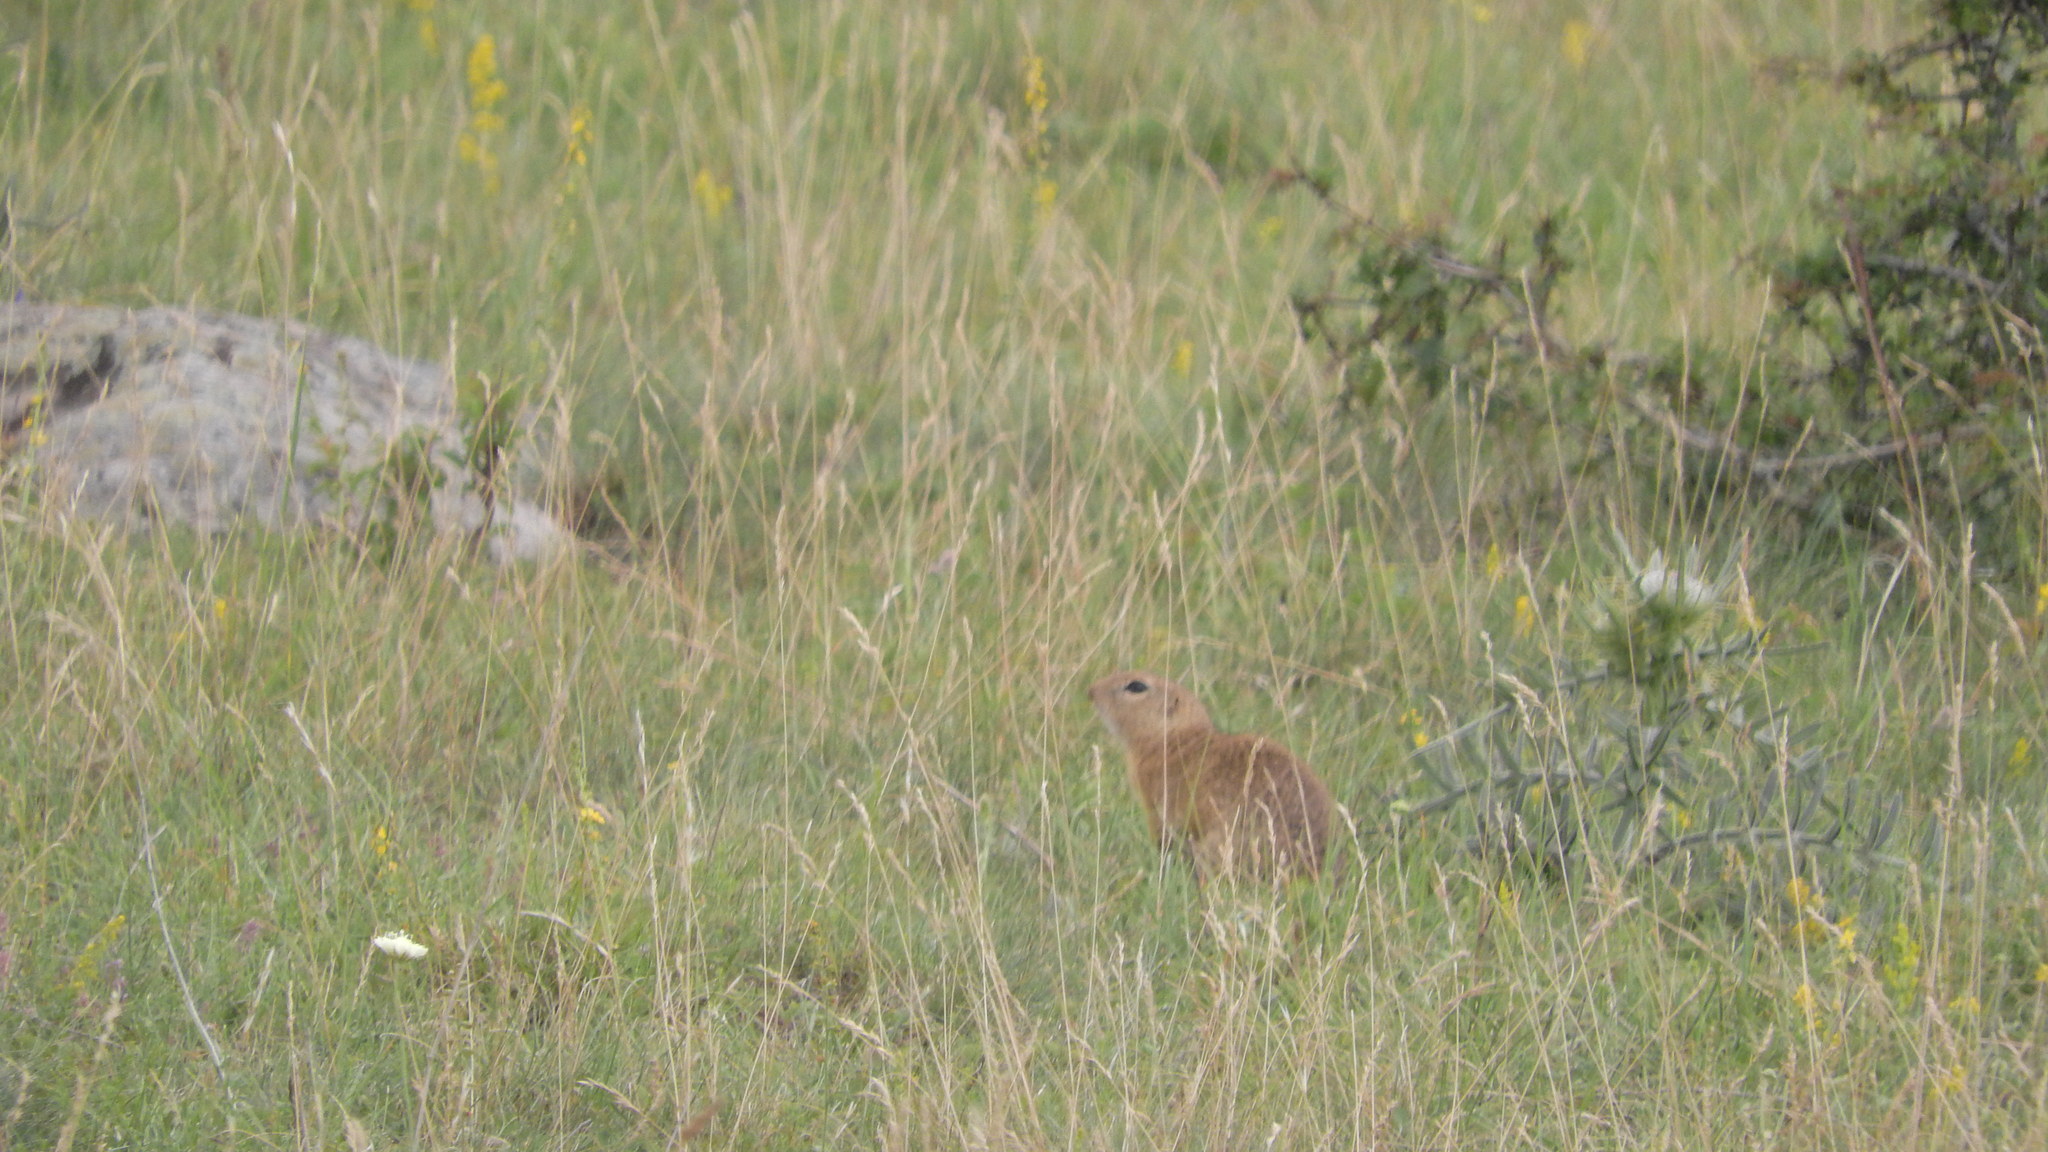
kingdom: Animalia
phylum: Chordata
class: Mammalia
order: Rodentia
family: Sciuridae
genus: Spermophilus
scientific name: Spermophilus citellus
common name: European ground squirrel
